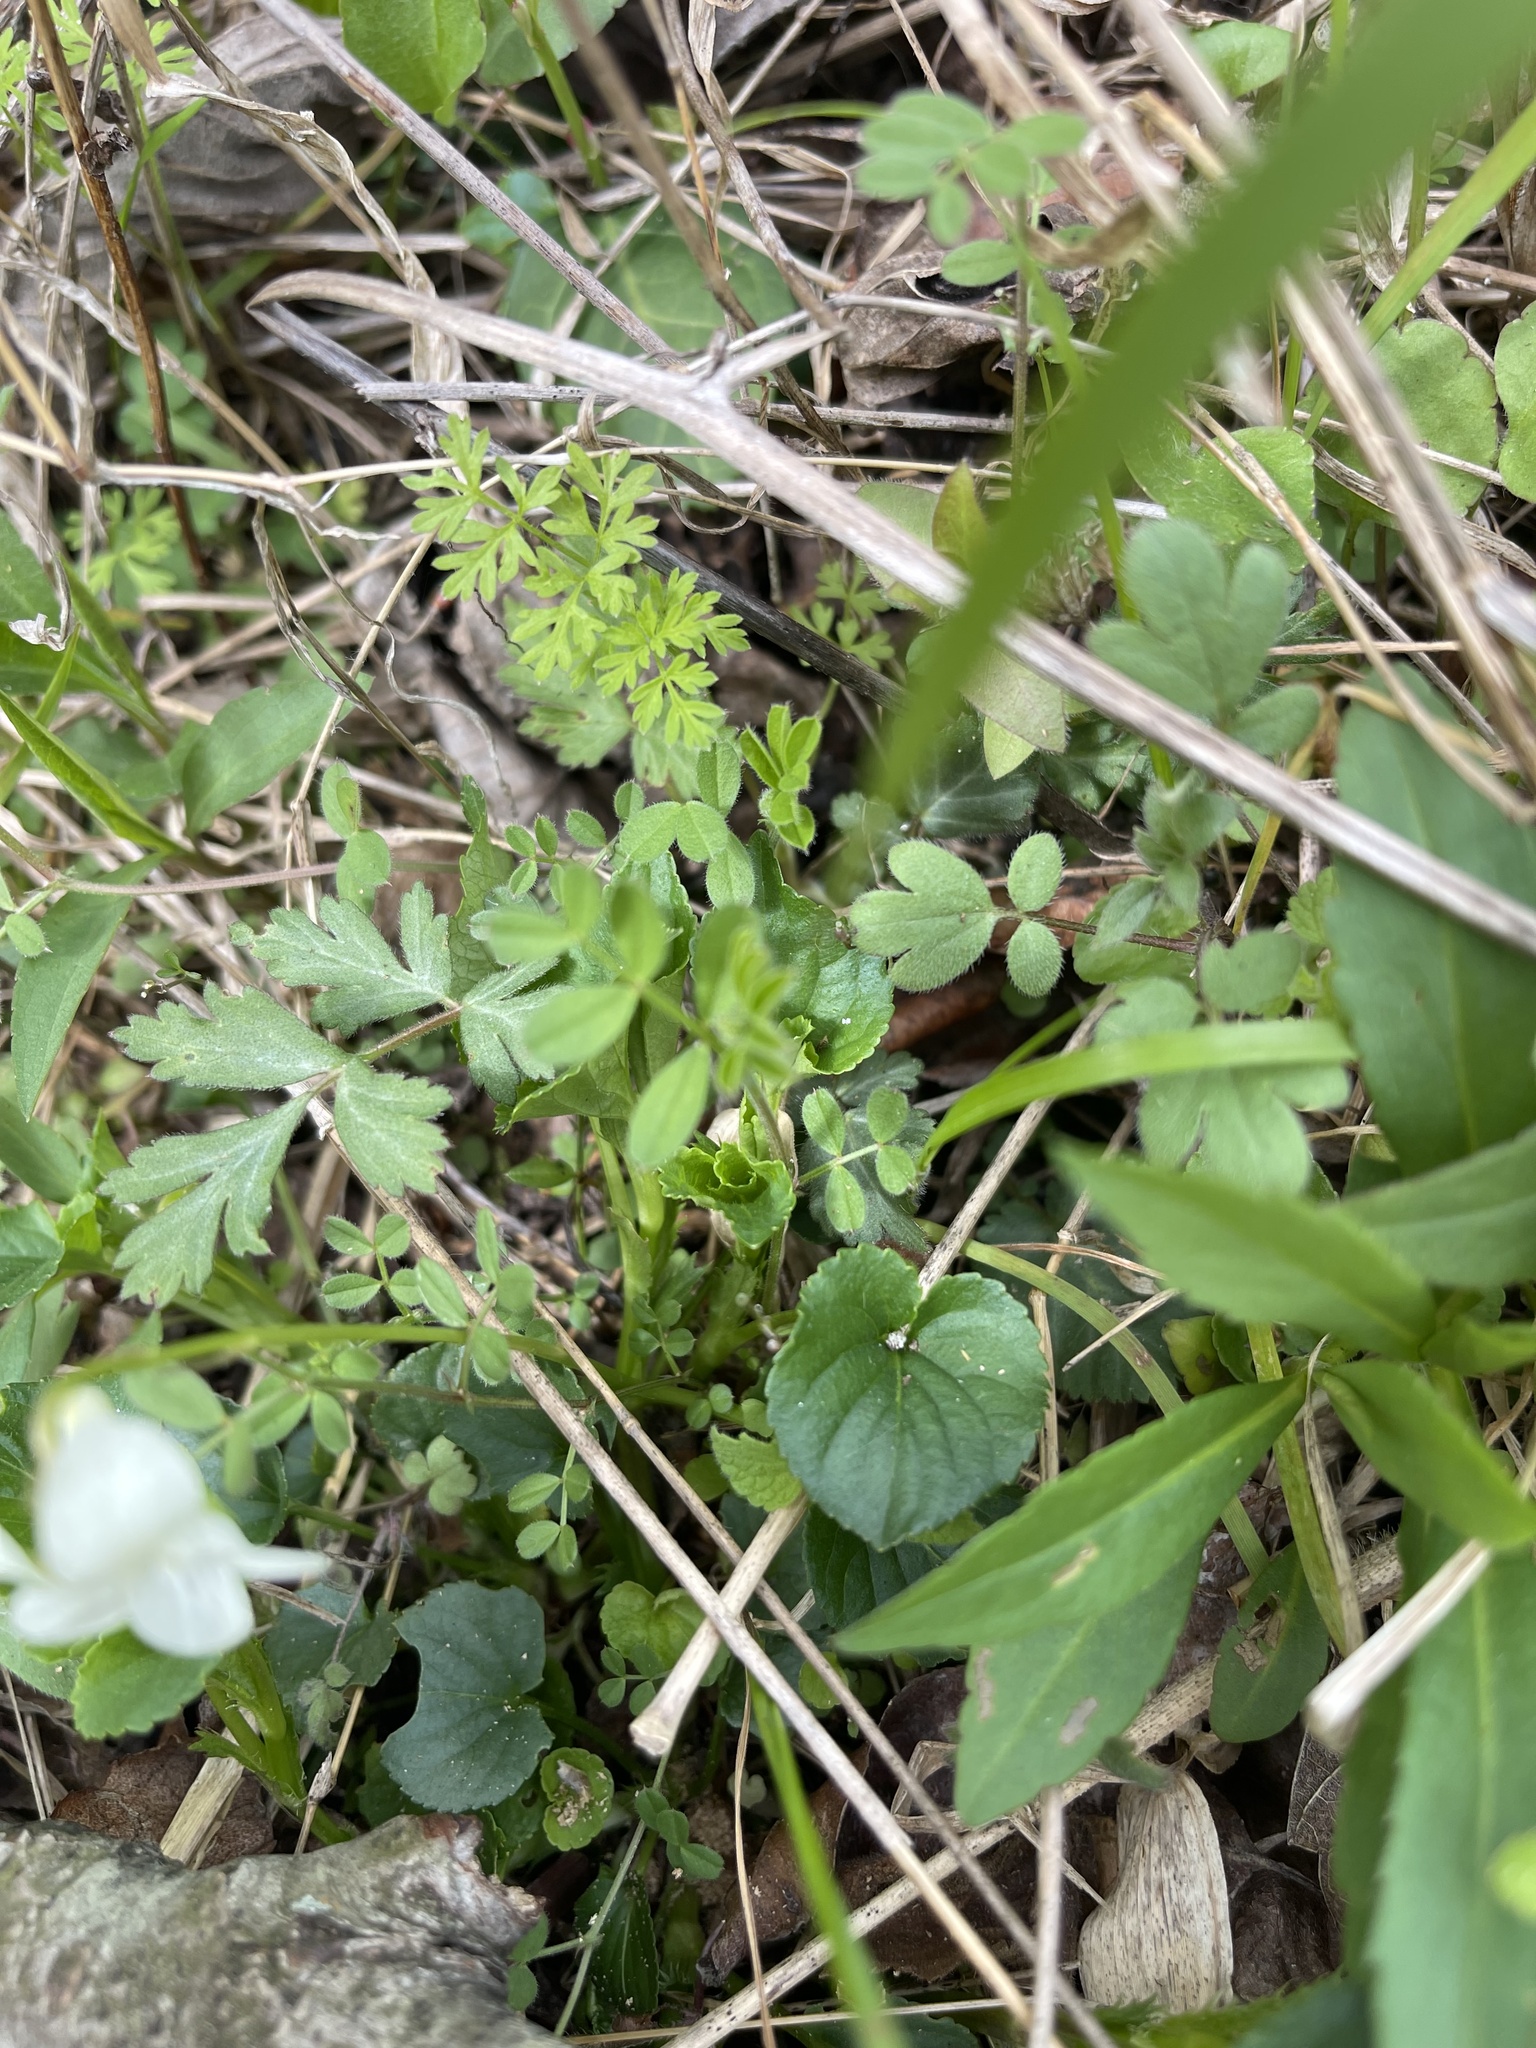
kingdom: Plantae
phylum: Tracheophyta
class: Magnoliopsida
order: Malpighiales
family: Violaceae
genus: Viola
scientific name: Viola striata
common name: Cream violet
